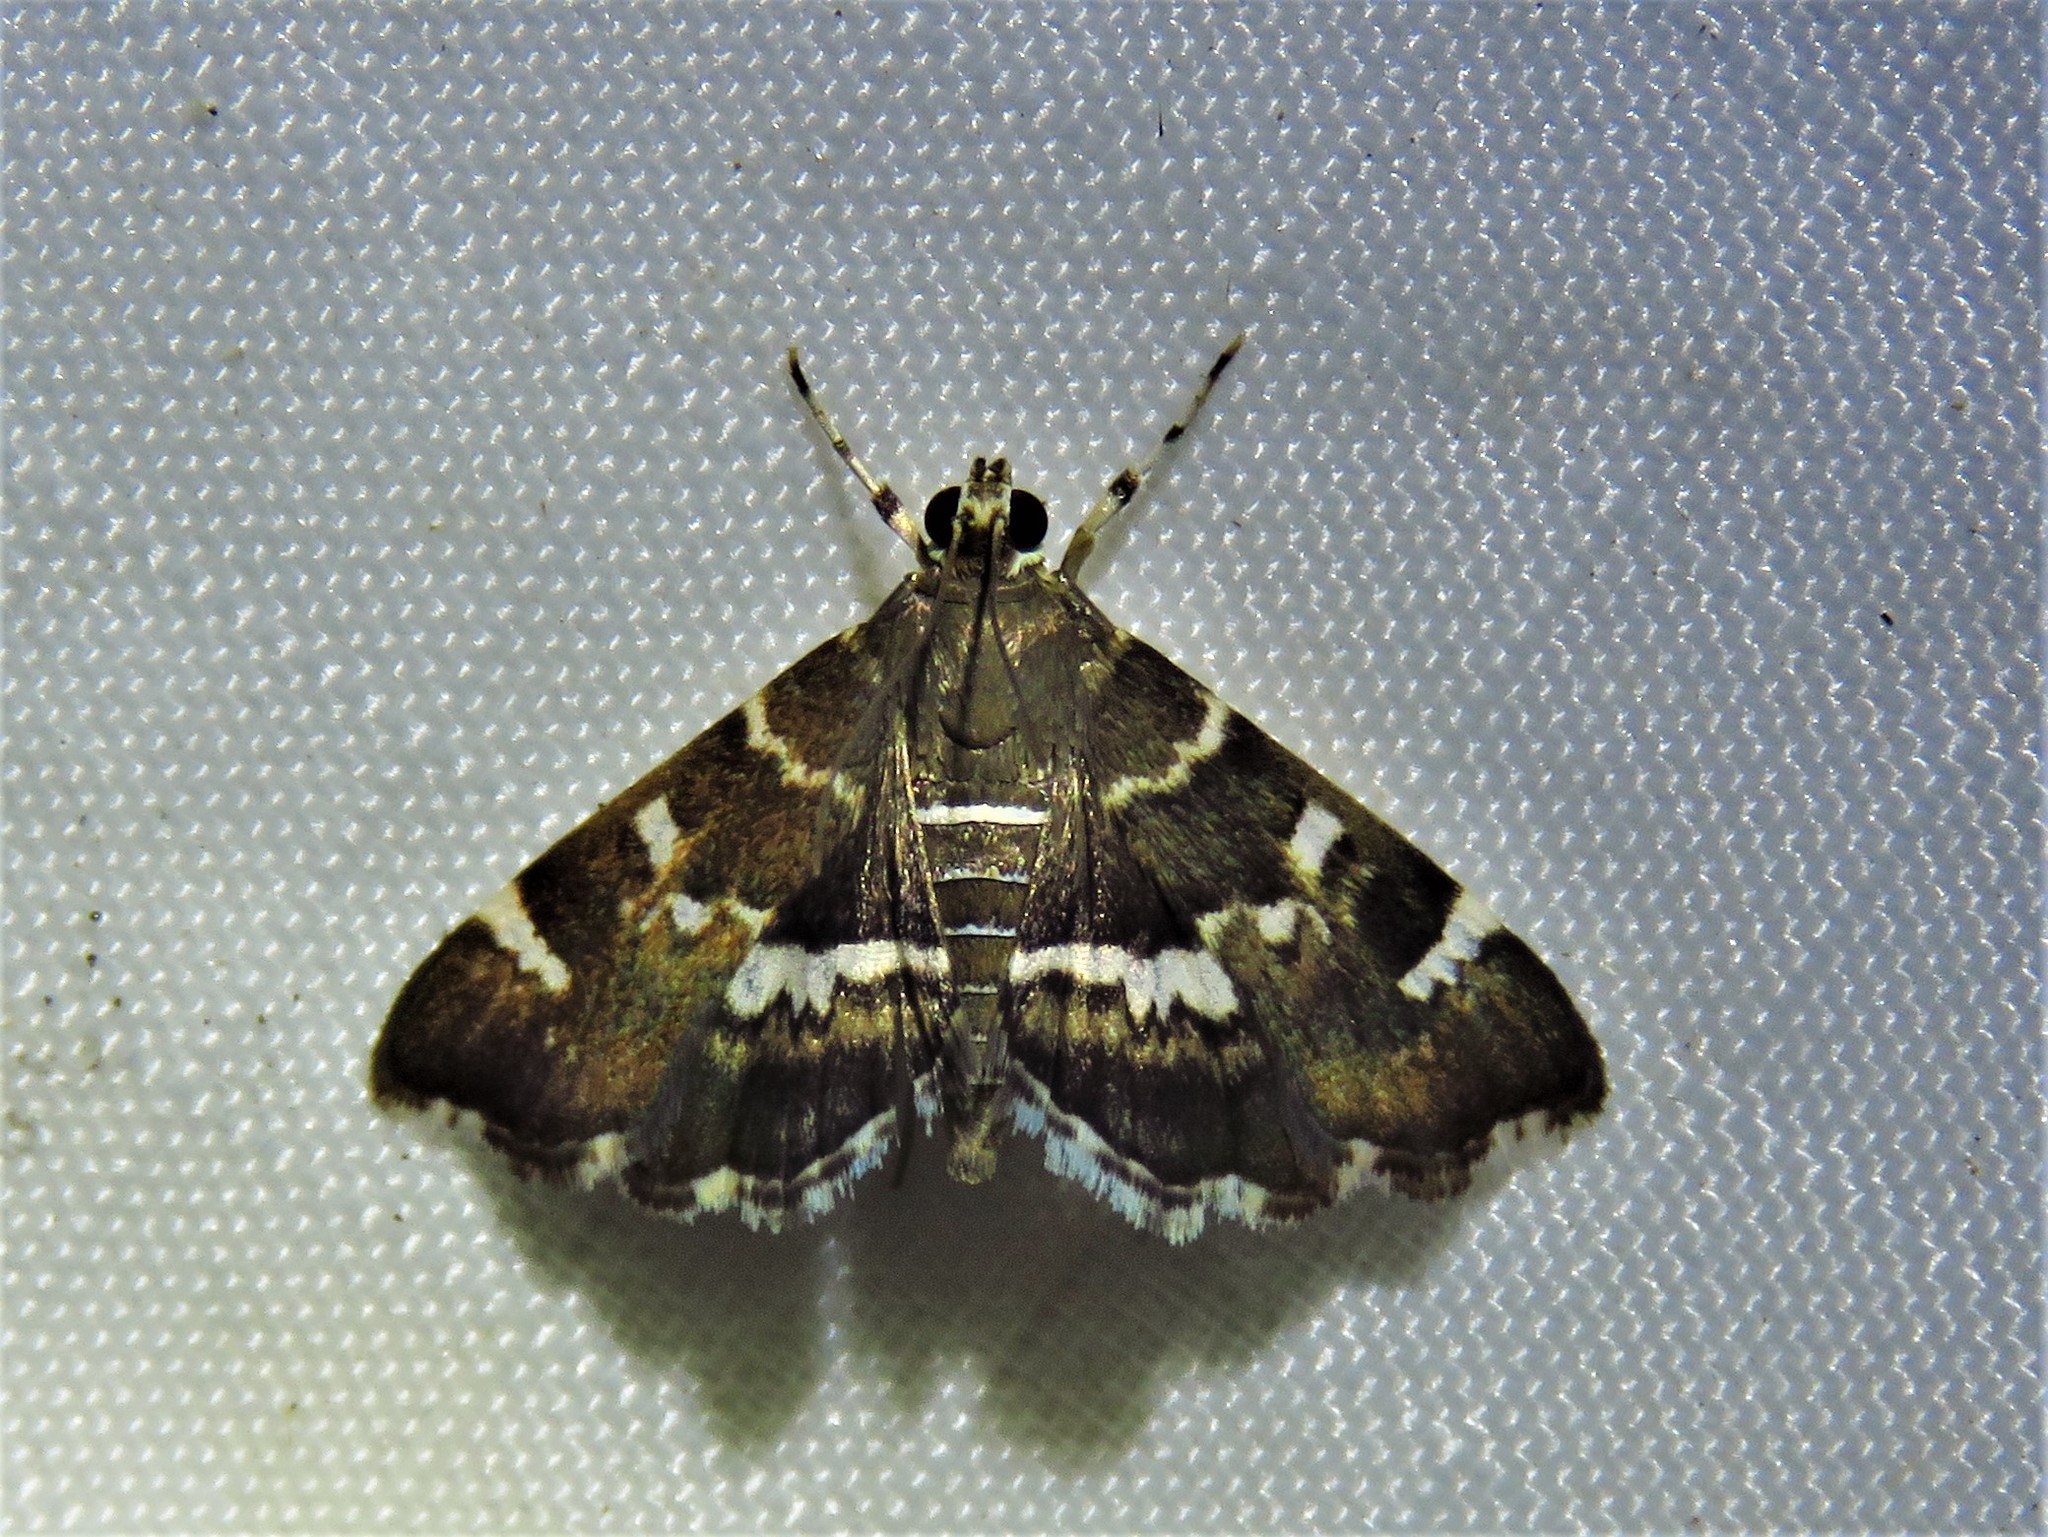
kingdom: Animalia
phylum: Arthropoda
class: Insecta
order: Lepidoptera
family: Crambidae
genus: Hymenia
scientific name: Hymenia perspectalis
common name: Spotted beet webworm
